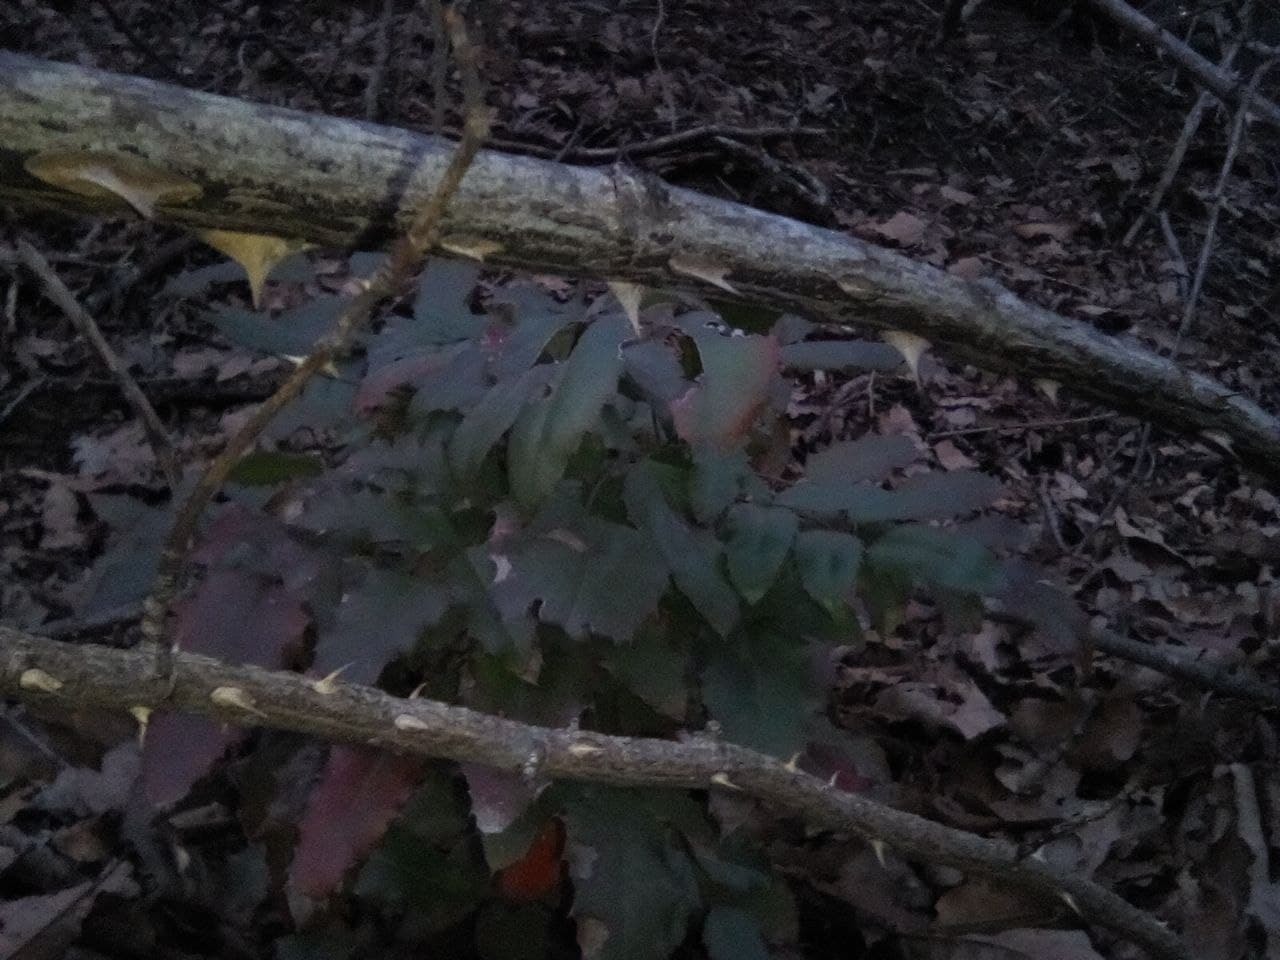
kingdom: Plantae
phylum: Tracheophyta
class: Magnoliopsida
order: Ranunculales
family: Berberidaceae
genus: Mahonia
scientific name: Mahonia aquifolium
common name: Oregon-grape
